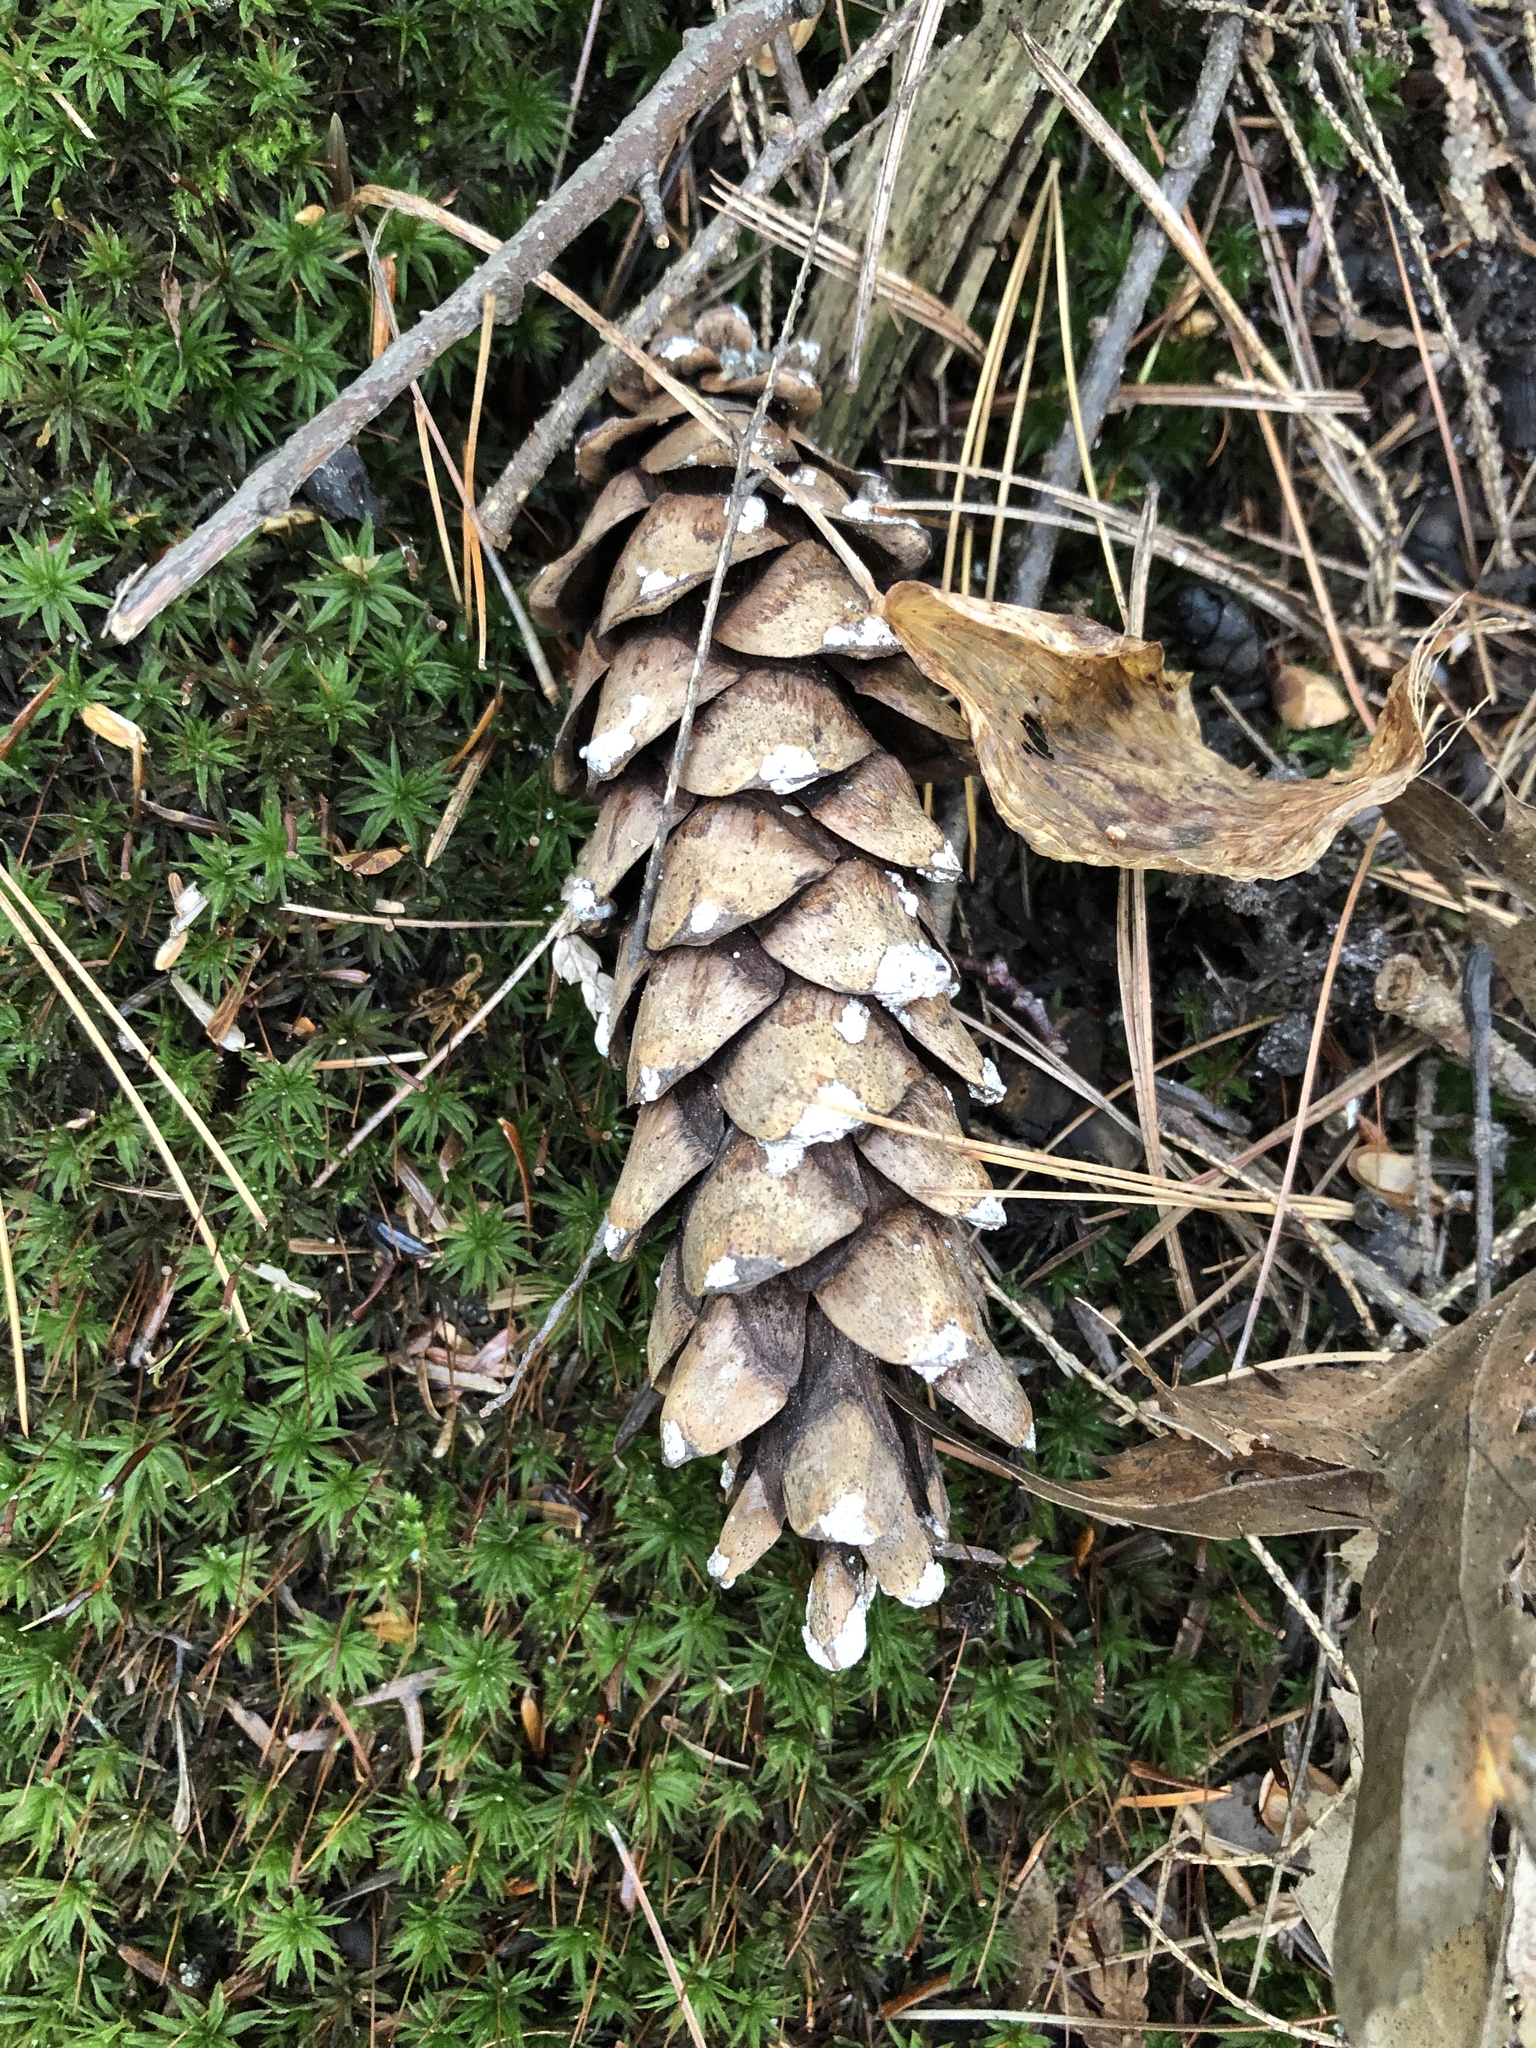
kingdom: Plantae
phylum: Tracheophyta
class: Pinopsida
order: Pinales
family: Pinaceae
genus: Pinus
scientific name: Pinus strobus
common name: Weymouth pine
